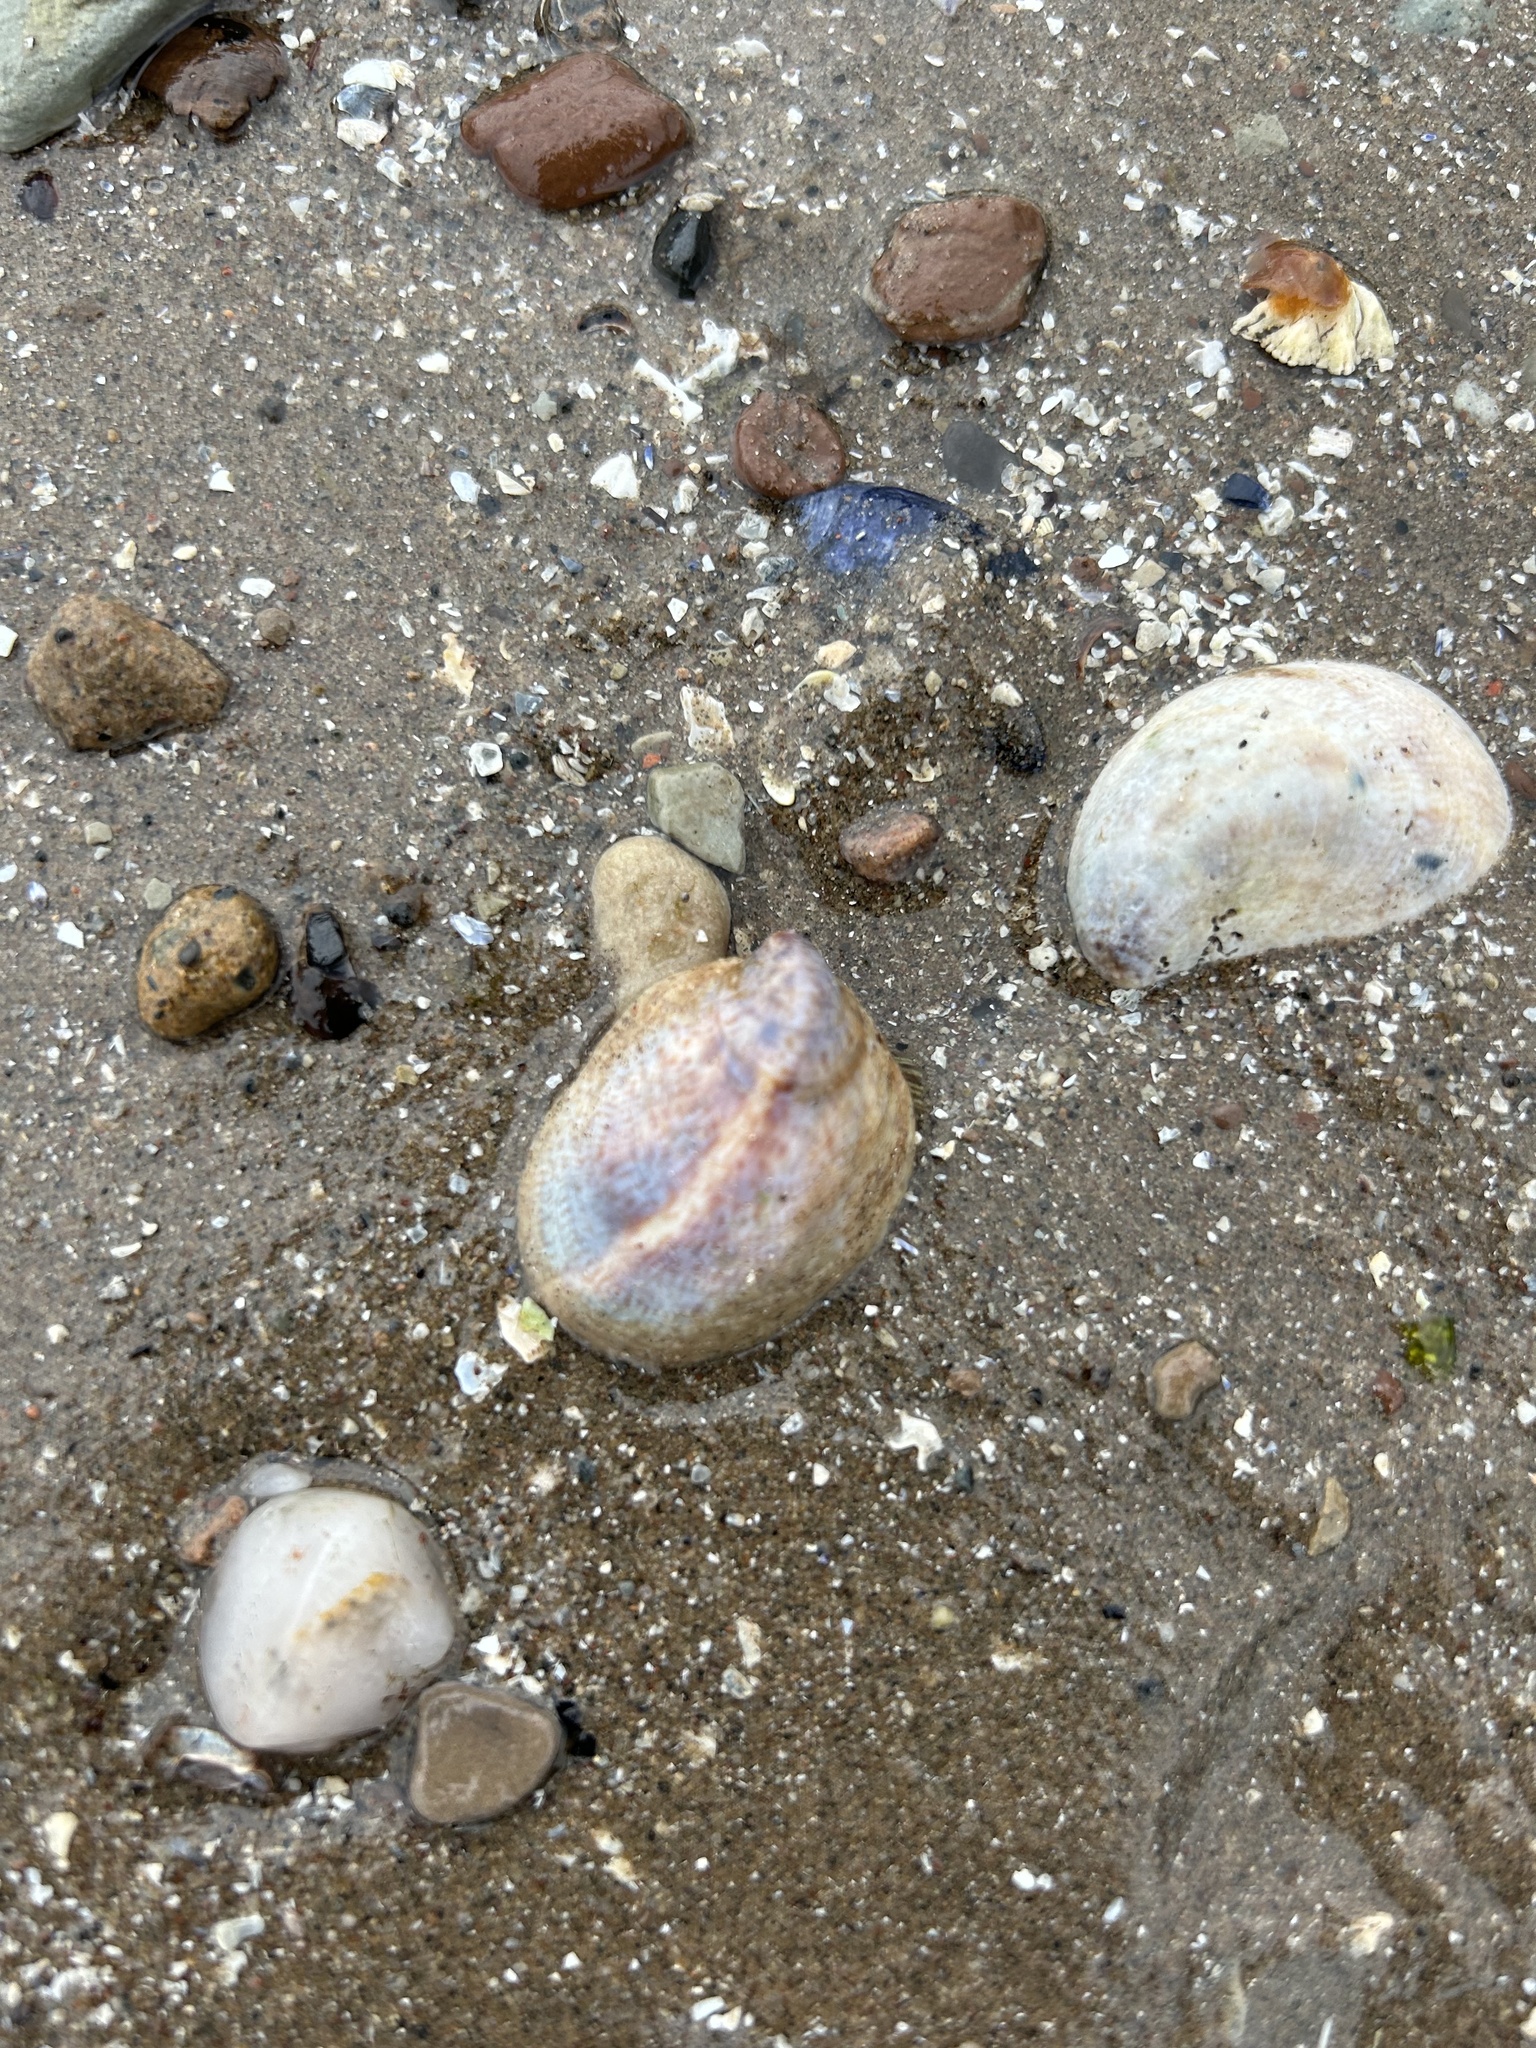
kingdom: Animalia
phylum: Mollusca
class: Gastropoda
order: Littorinimorpha
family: Calyptraeidae
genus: Crepidula
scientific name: Crepidula fornicata
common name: Slipper limpet
